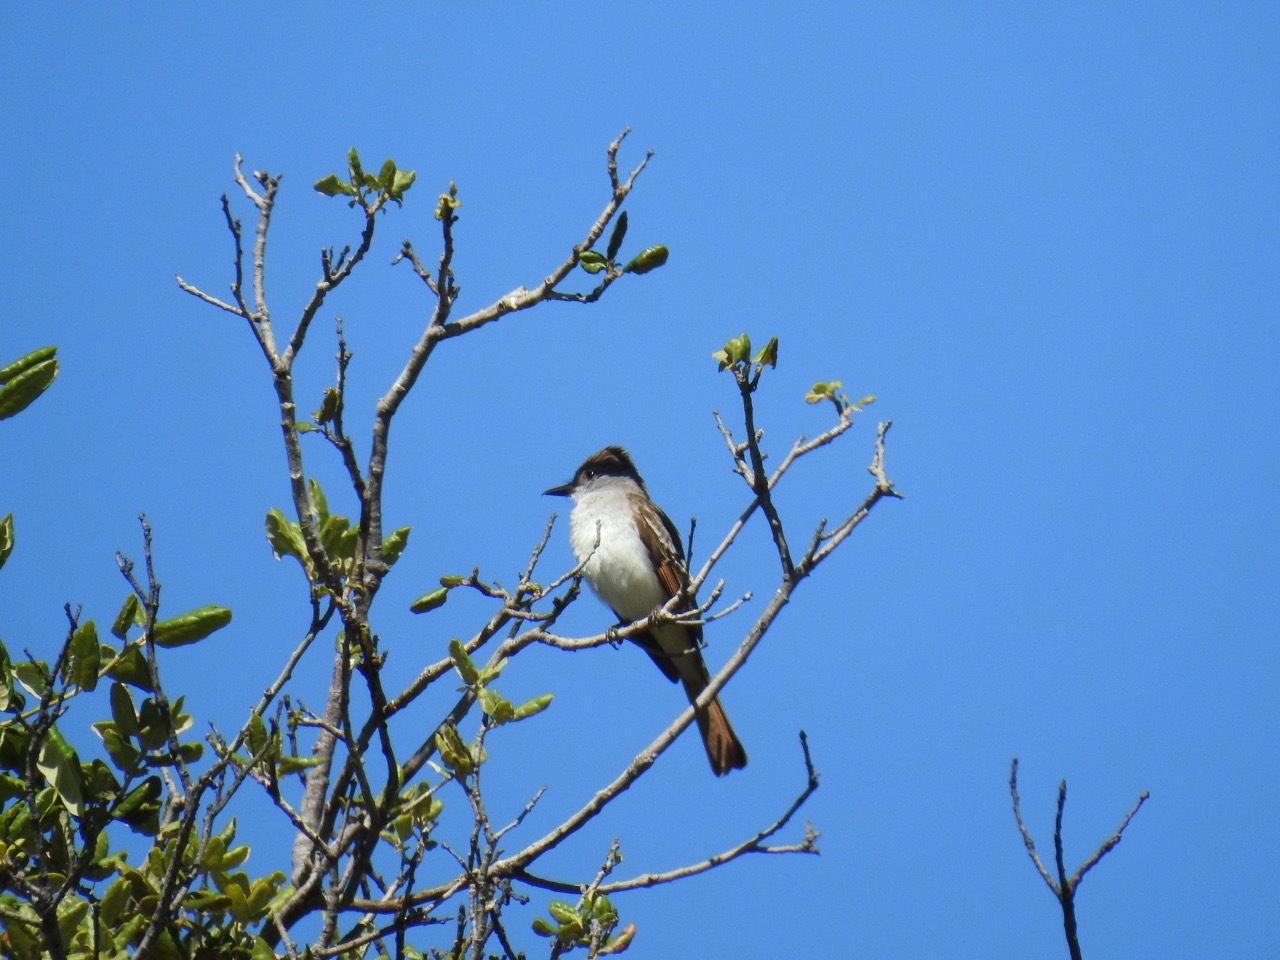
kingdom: Animalia
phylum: Chordata
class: Aves
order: Passeriformes
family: Tyrannidae
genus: Myiarchus
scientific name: Myiarchus cinerascens
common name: Ash-throated flycatcher
